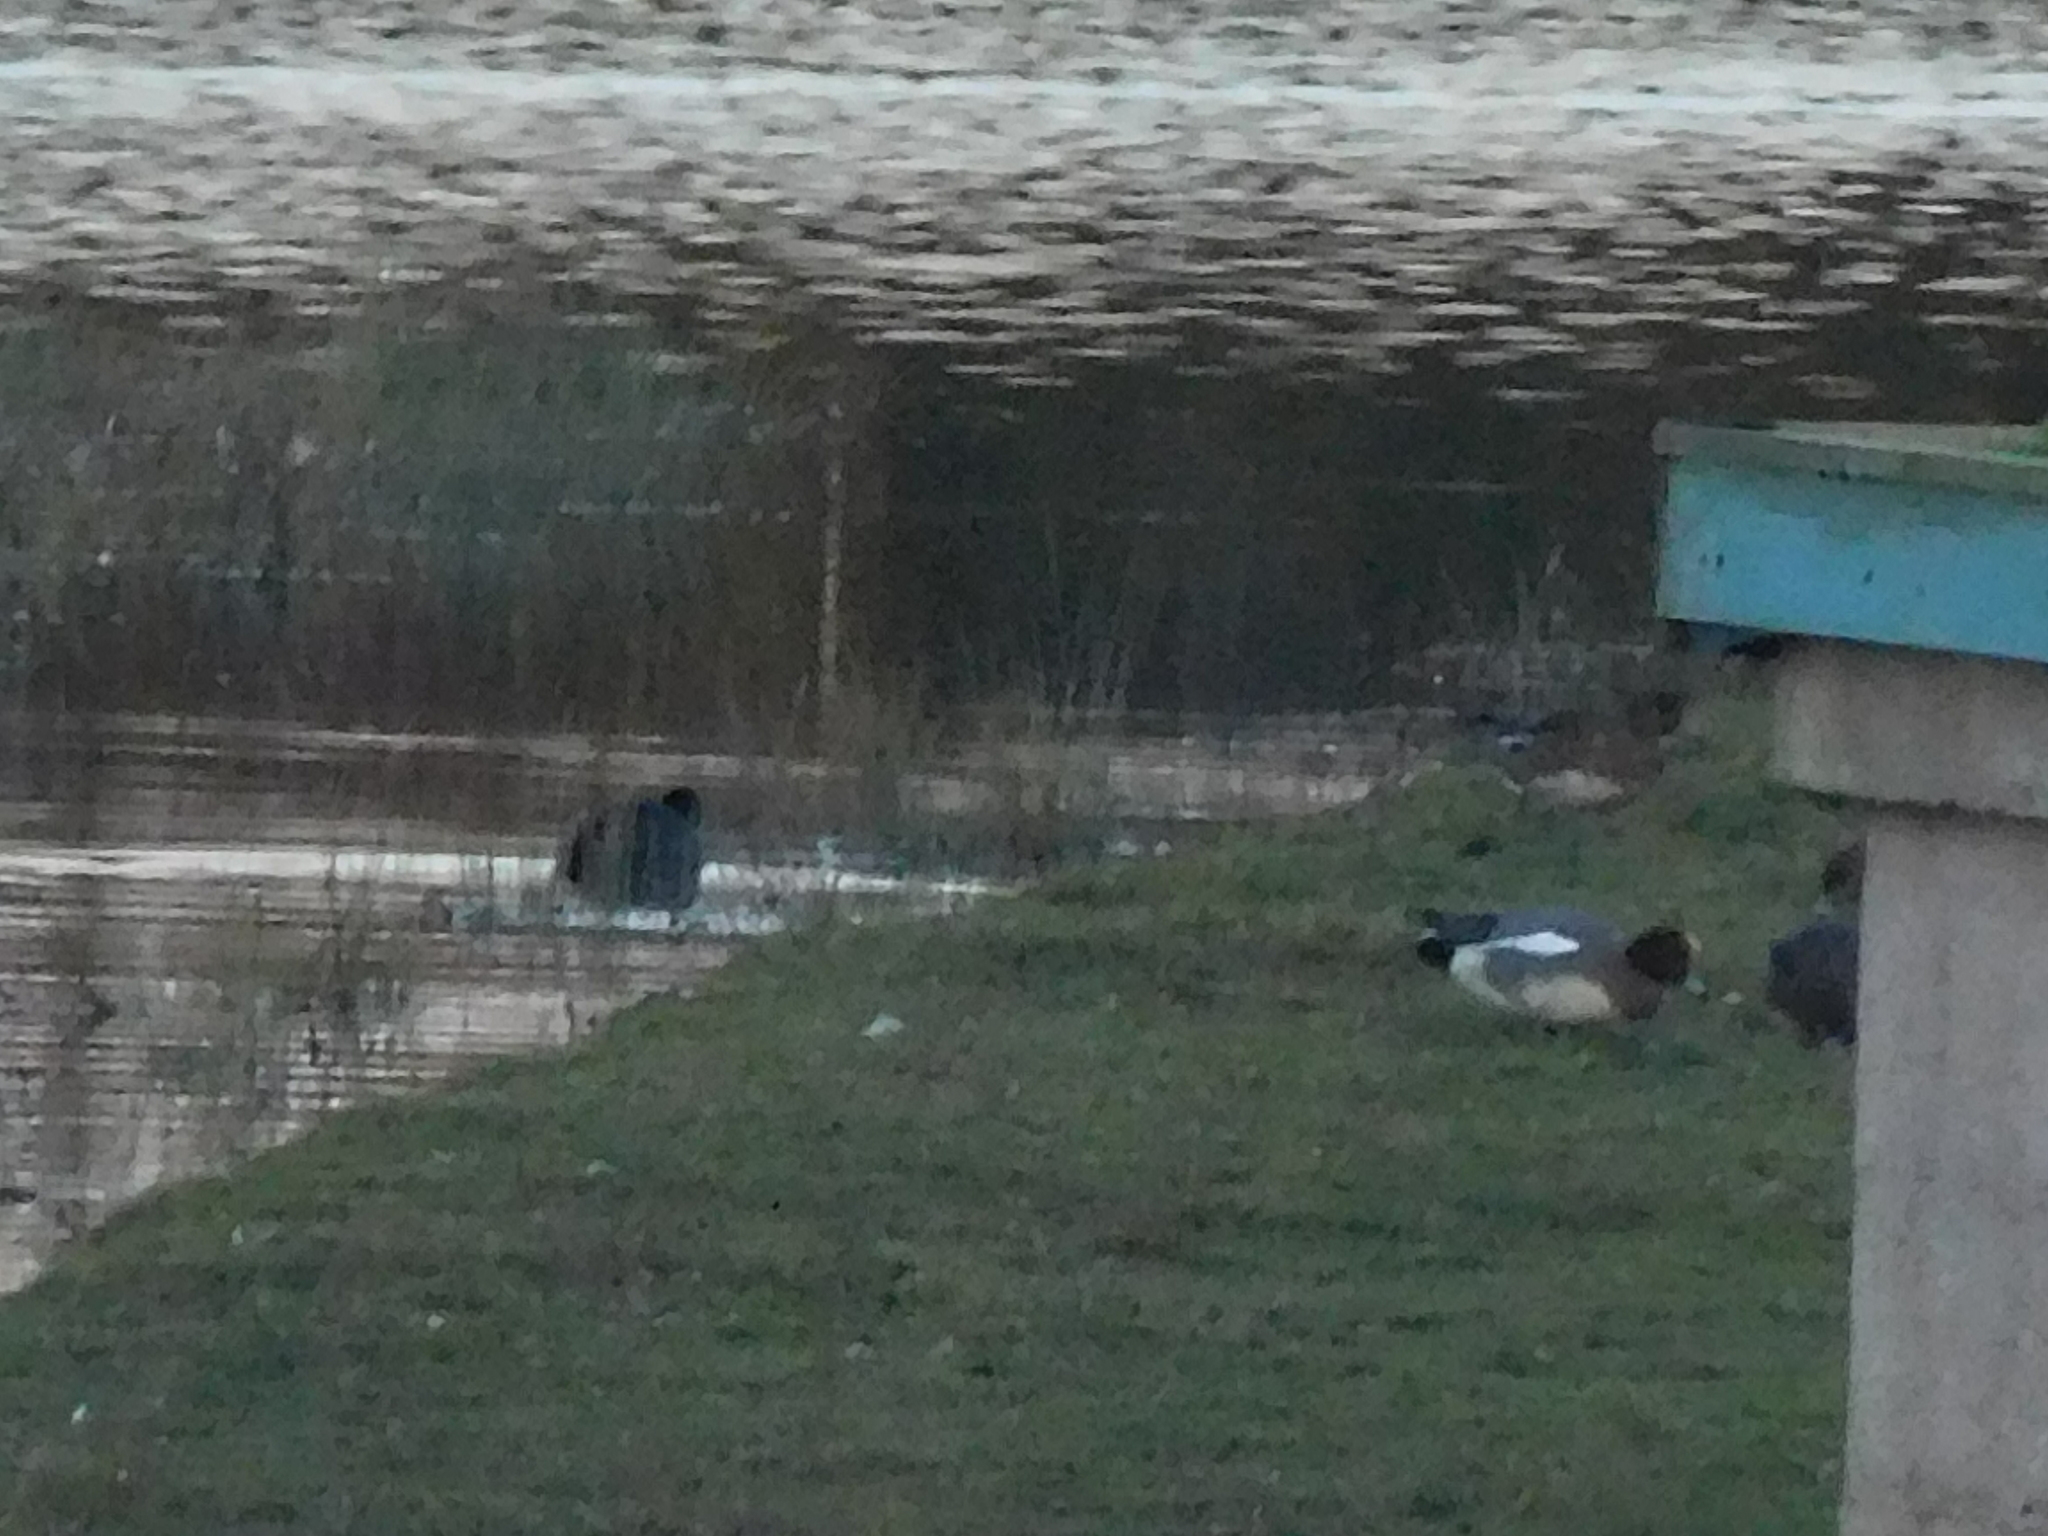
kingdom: Animalia
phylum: Chordata
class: Aves
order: Anseriformes
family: Anatidae
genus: Mareca
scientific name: Mareca penelope
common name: Eurasian wigeon
